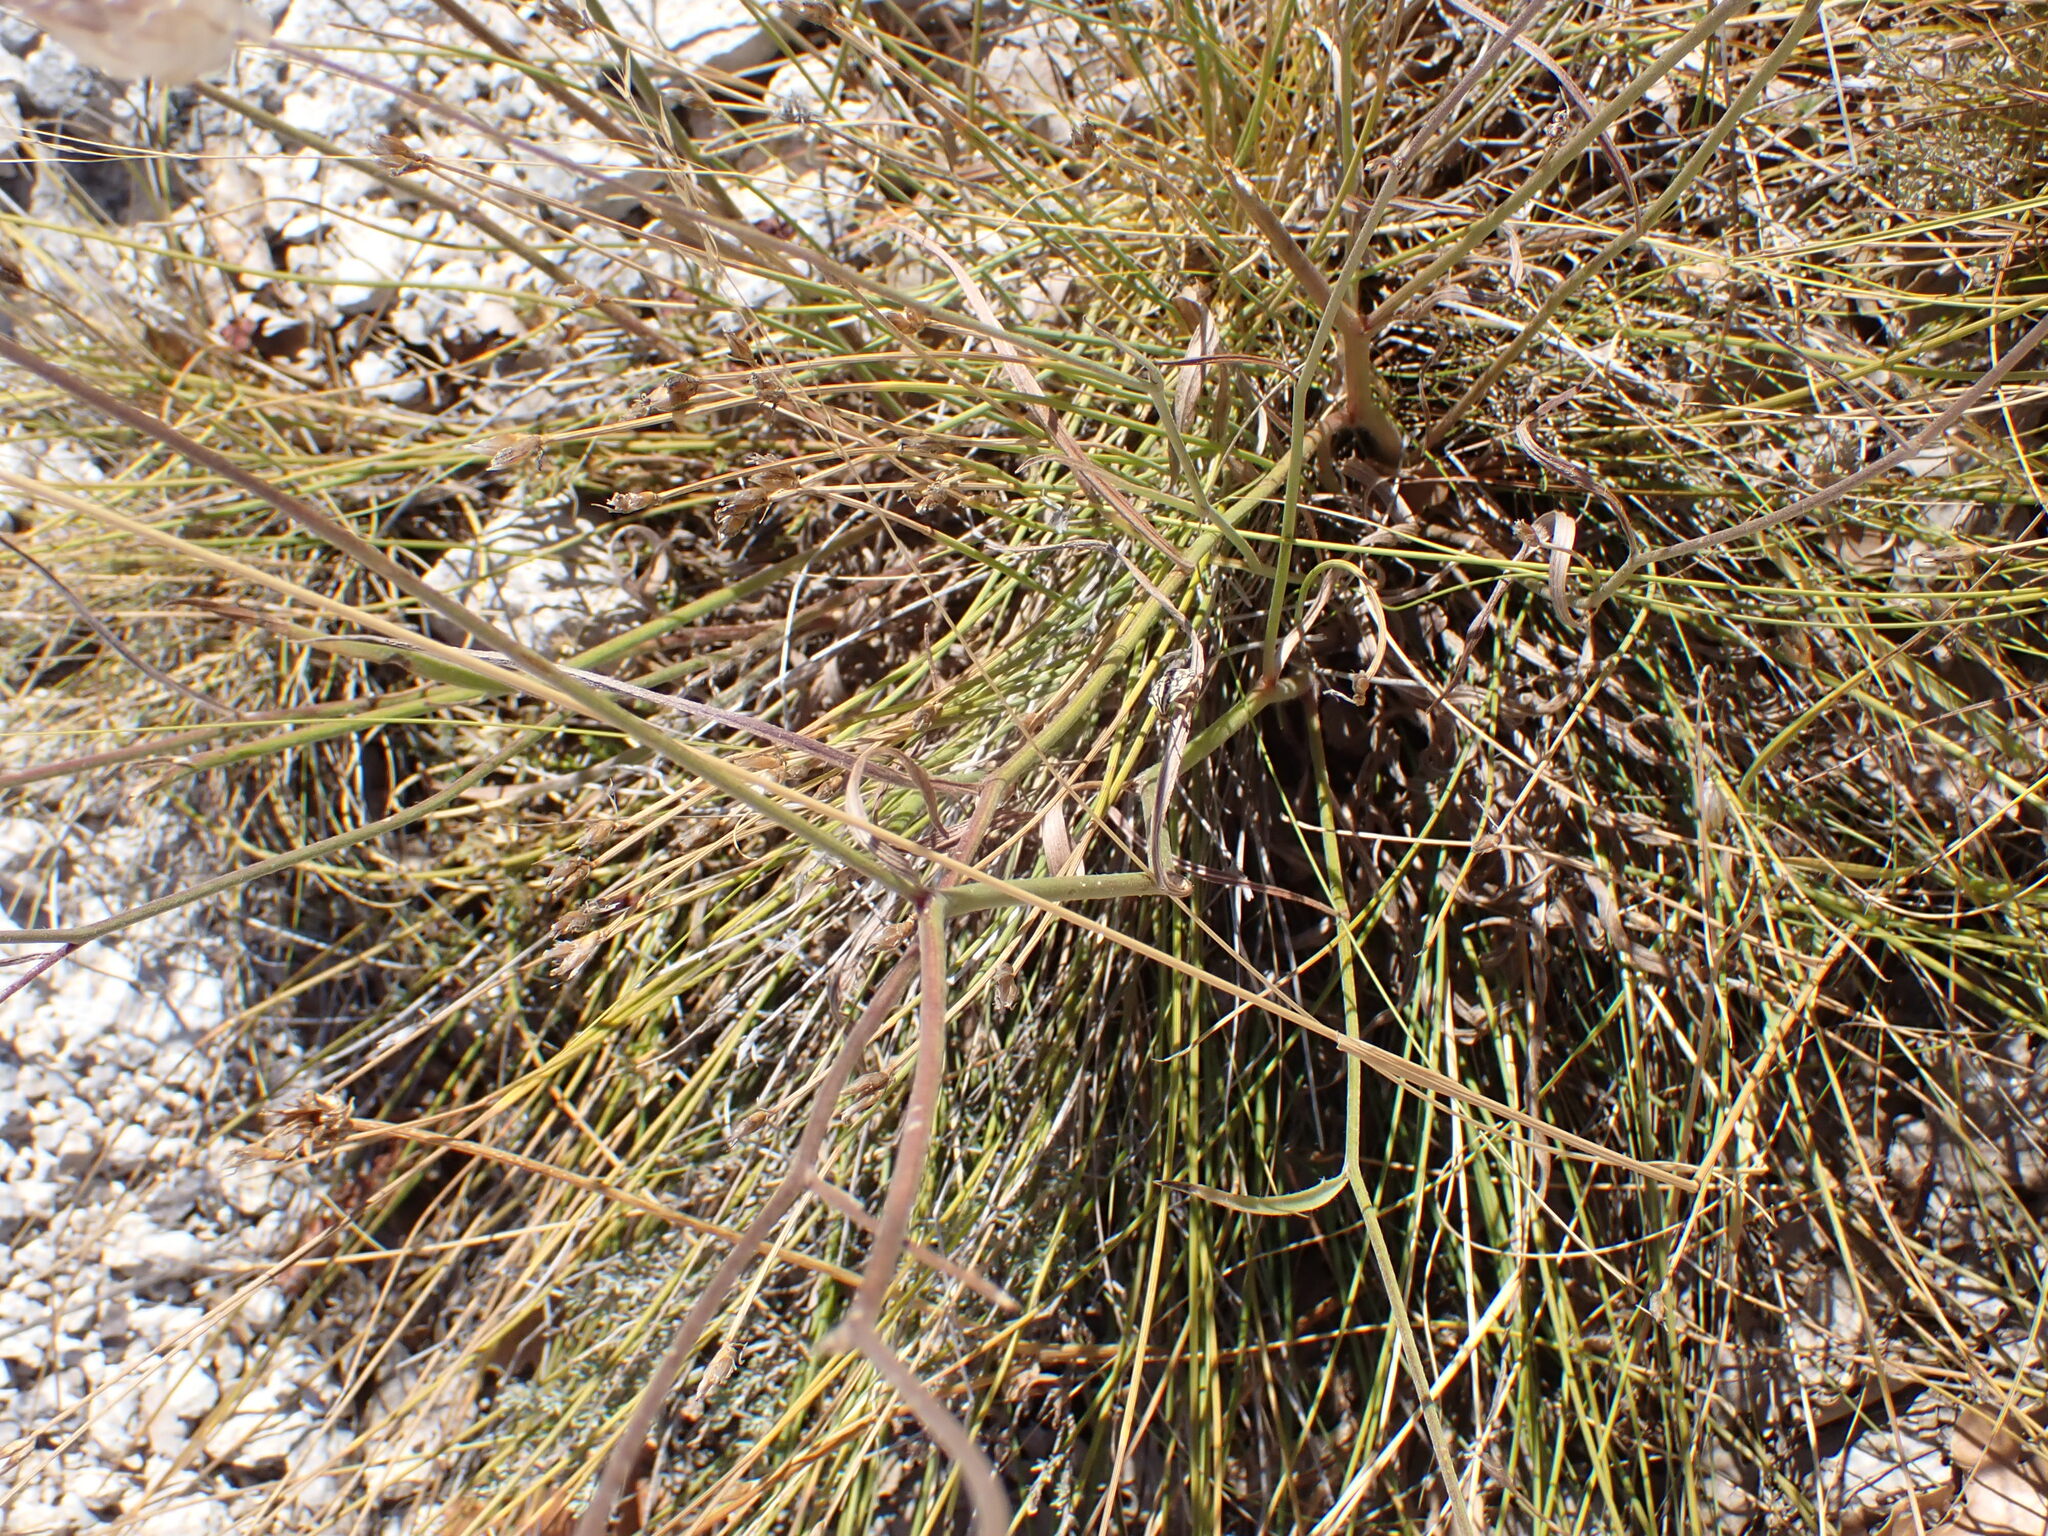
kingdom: Plantae
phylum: Tracheophyta
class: Magnoliopsida
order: Asterales
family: Asteraceae
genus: Catananche
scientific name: Catananche caerulea
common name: Blue cupidone
